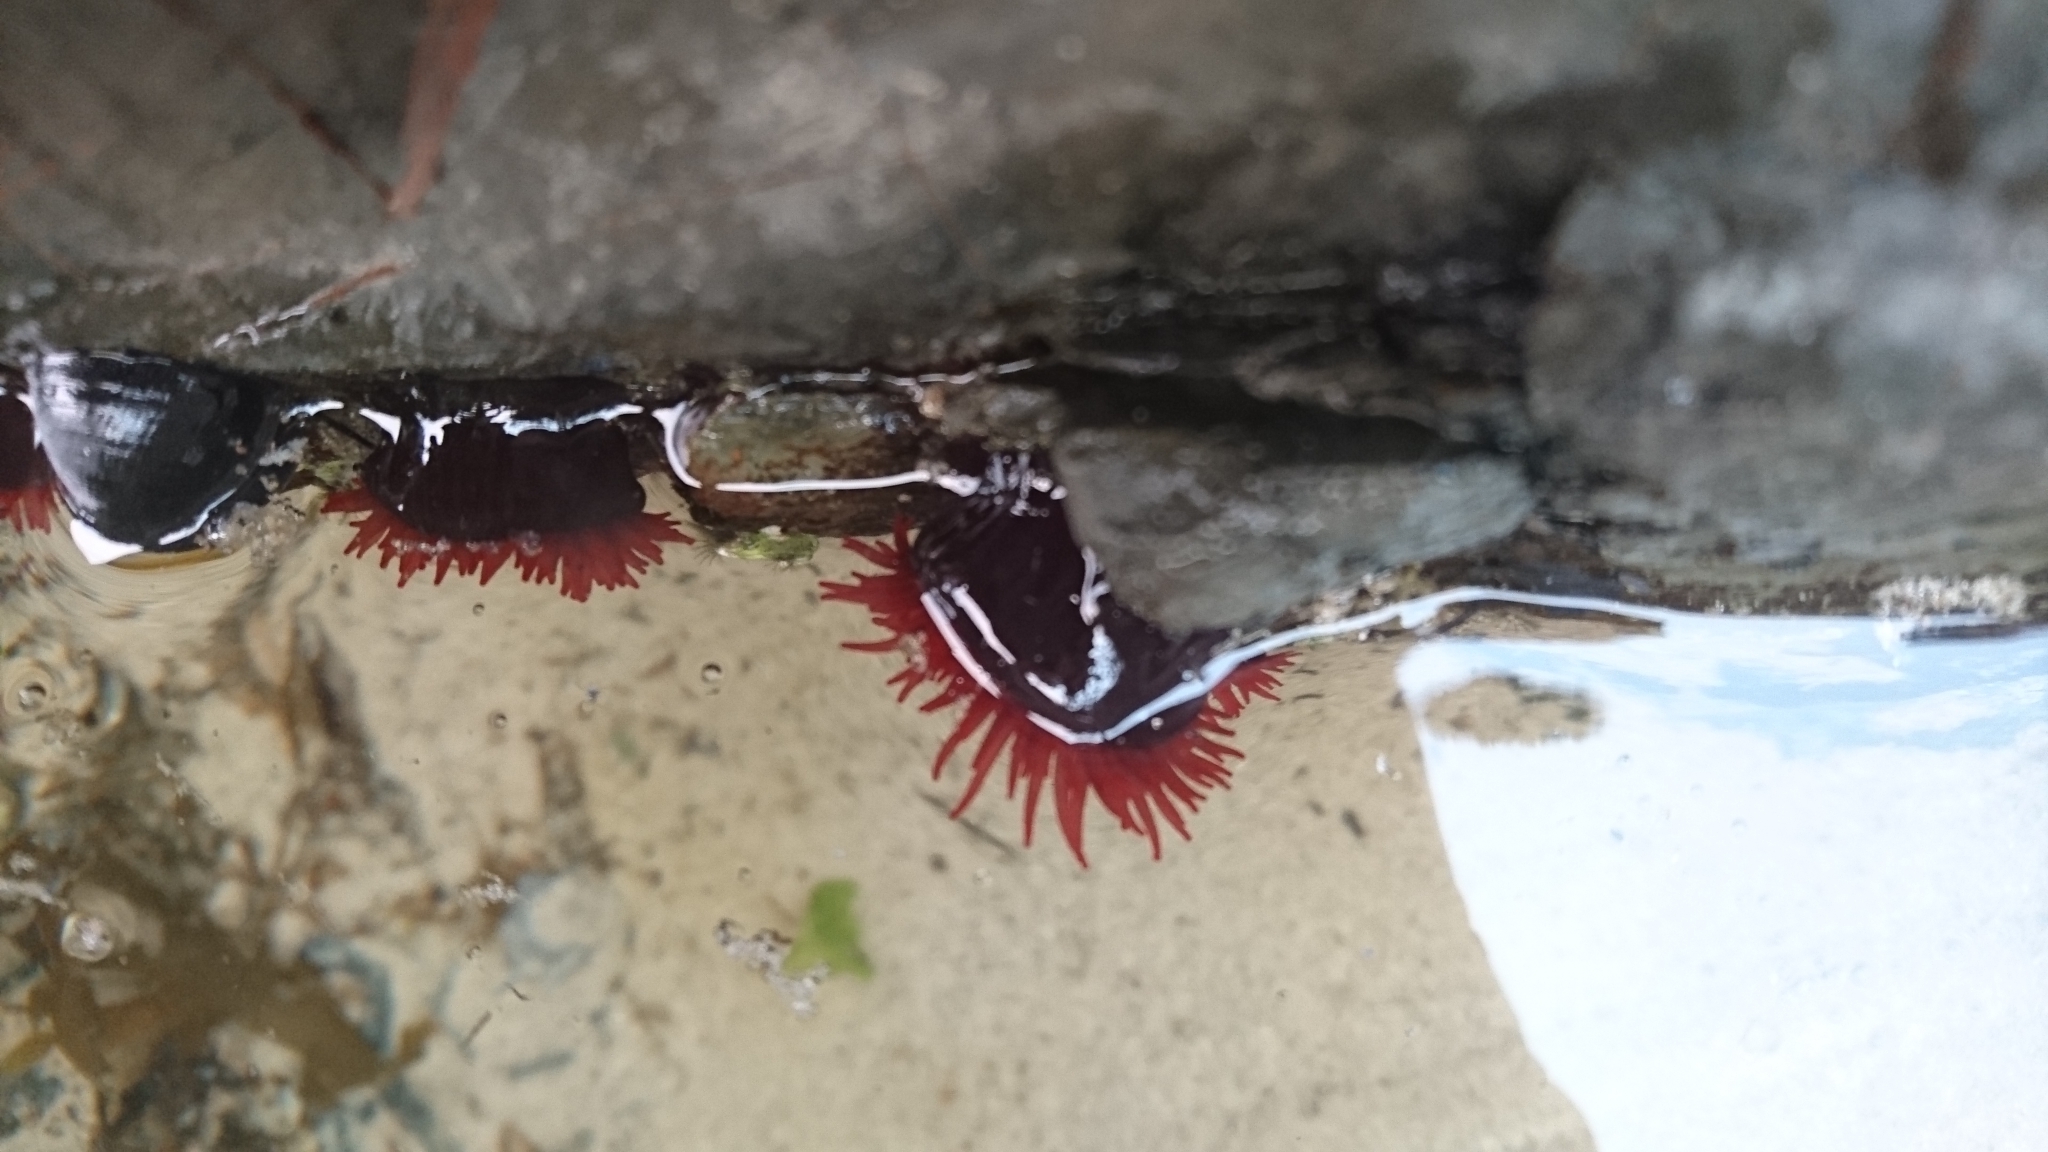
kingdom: Animalia
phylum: Cnidaria
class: Anthozoa
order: Actiniaria
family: Actiniidae
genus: Actinia
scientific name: Actinia tenebrosa
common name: Waratah anemone
